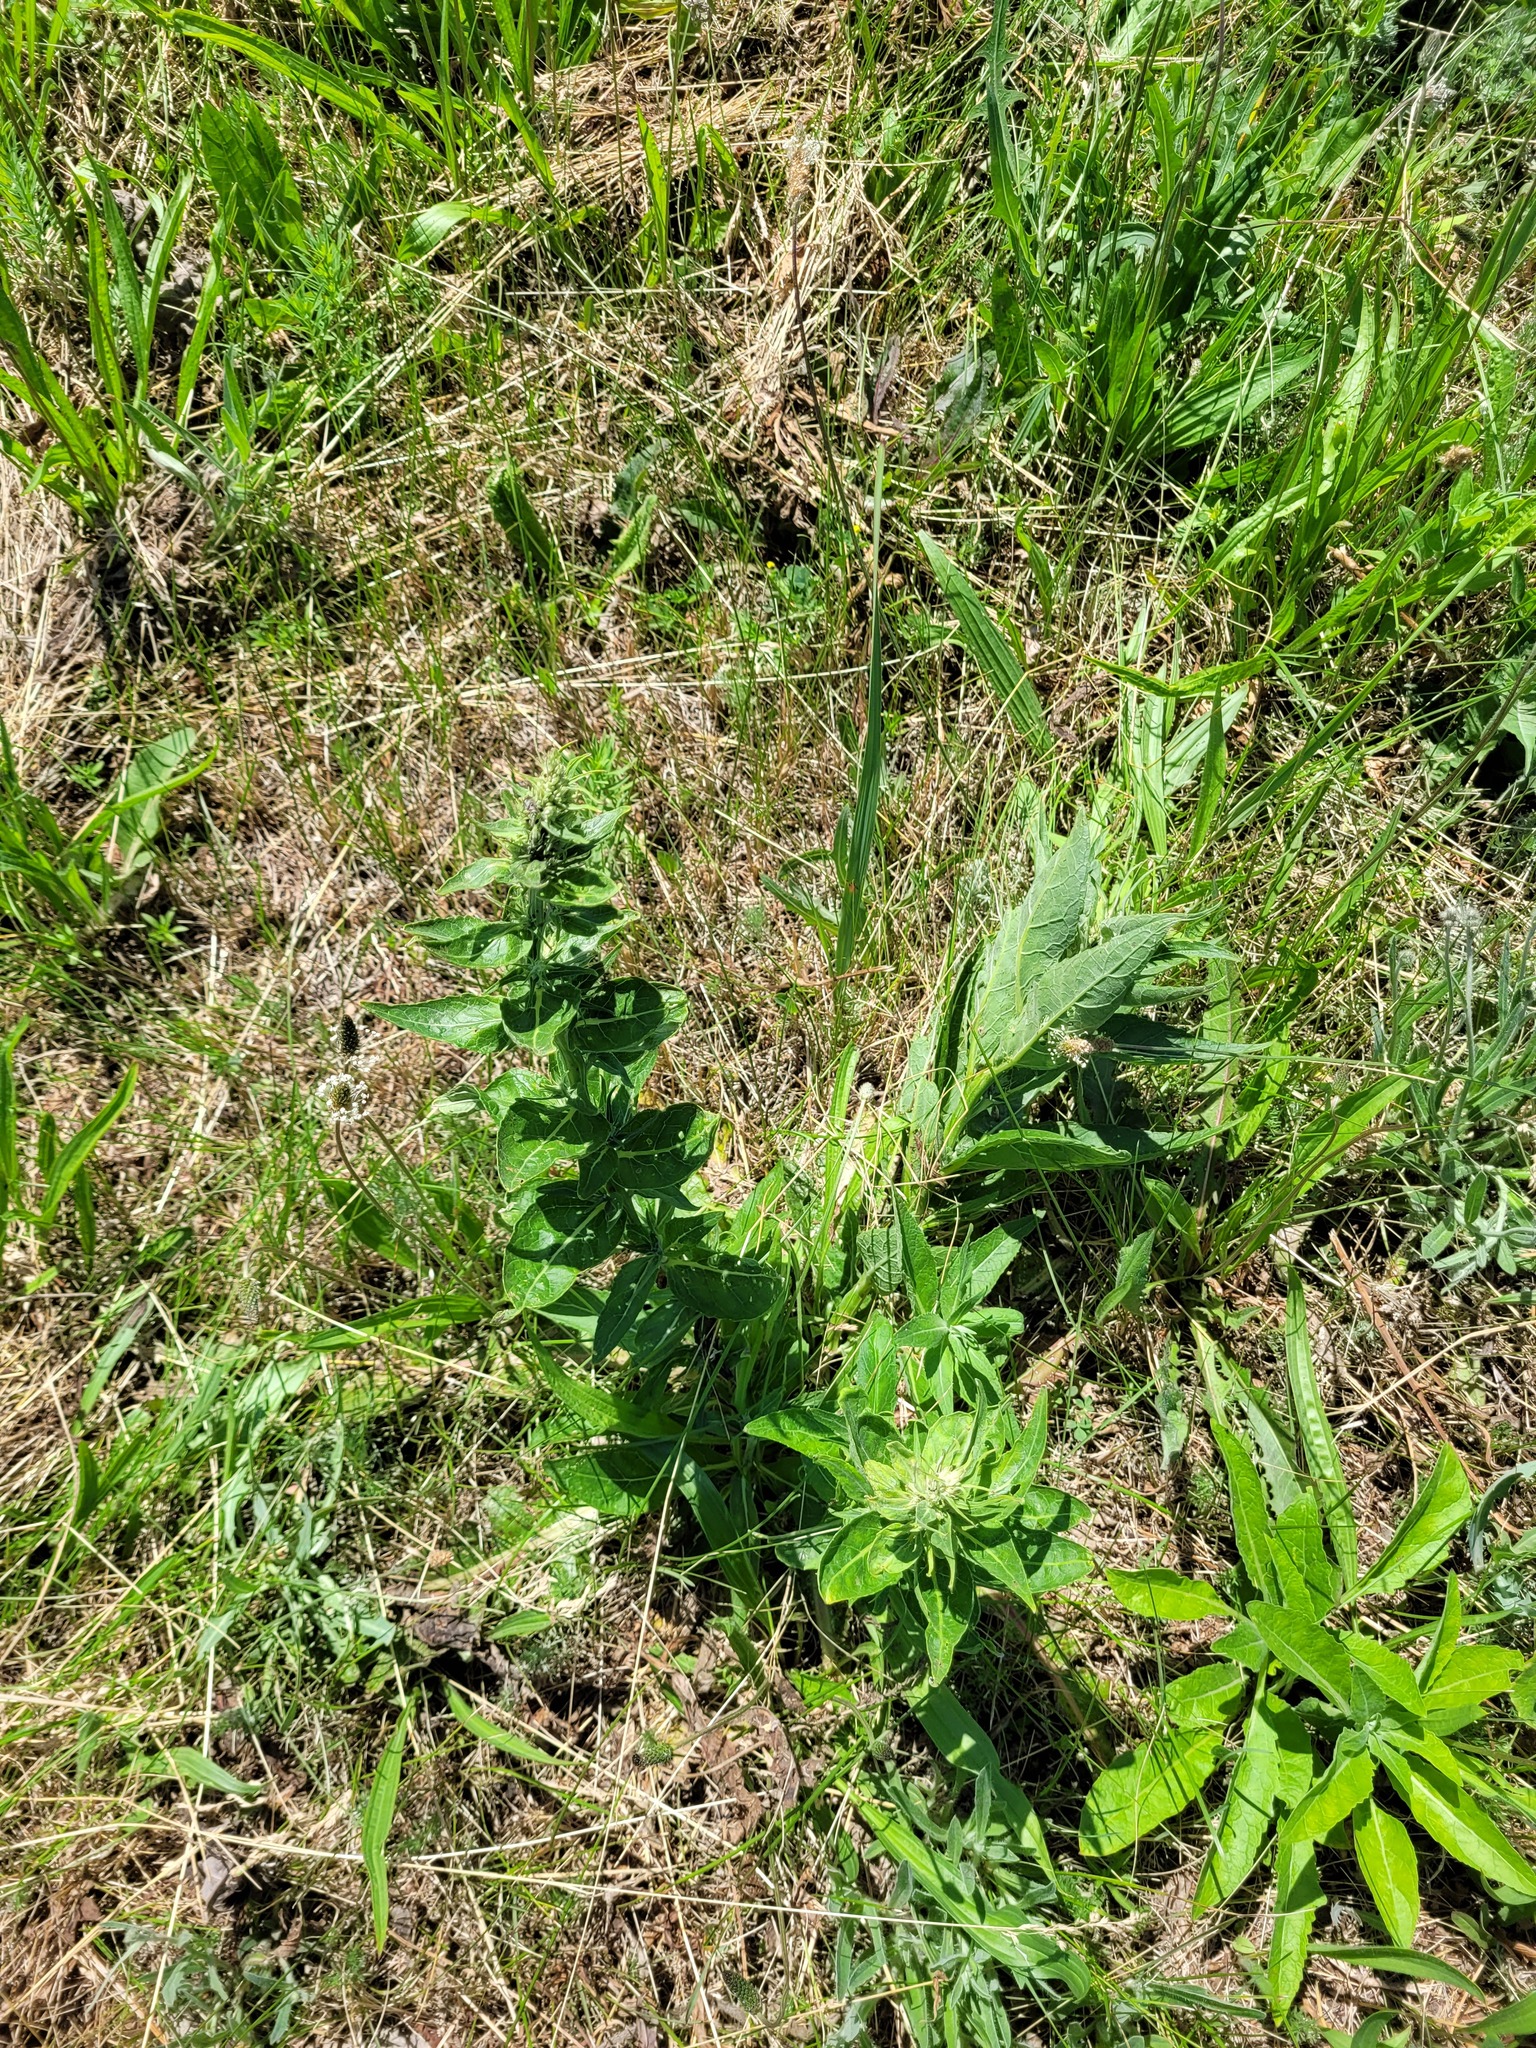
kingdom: Plantae
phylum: Tracheophyta
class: Magnoliopsida
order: Lamiales
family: Scrophulariaceae
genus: Verbascum
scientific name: Verbascum lychnitis
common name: White mullein
